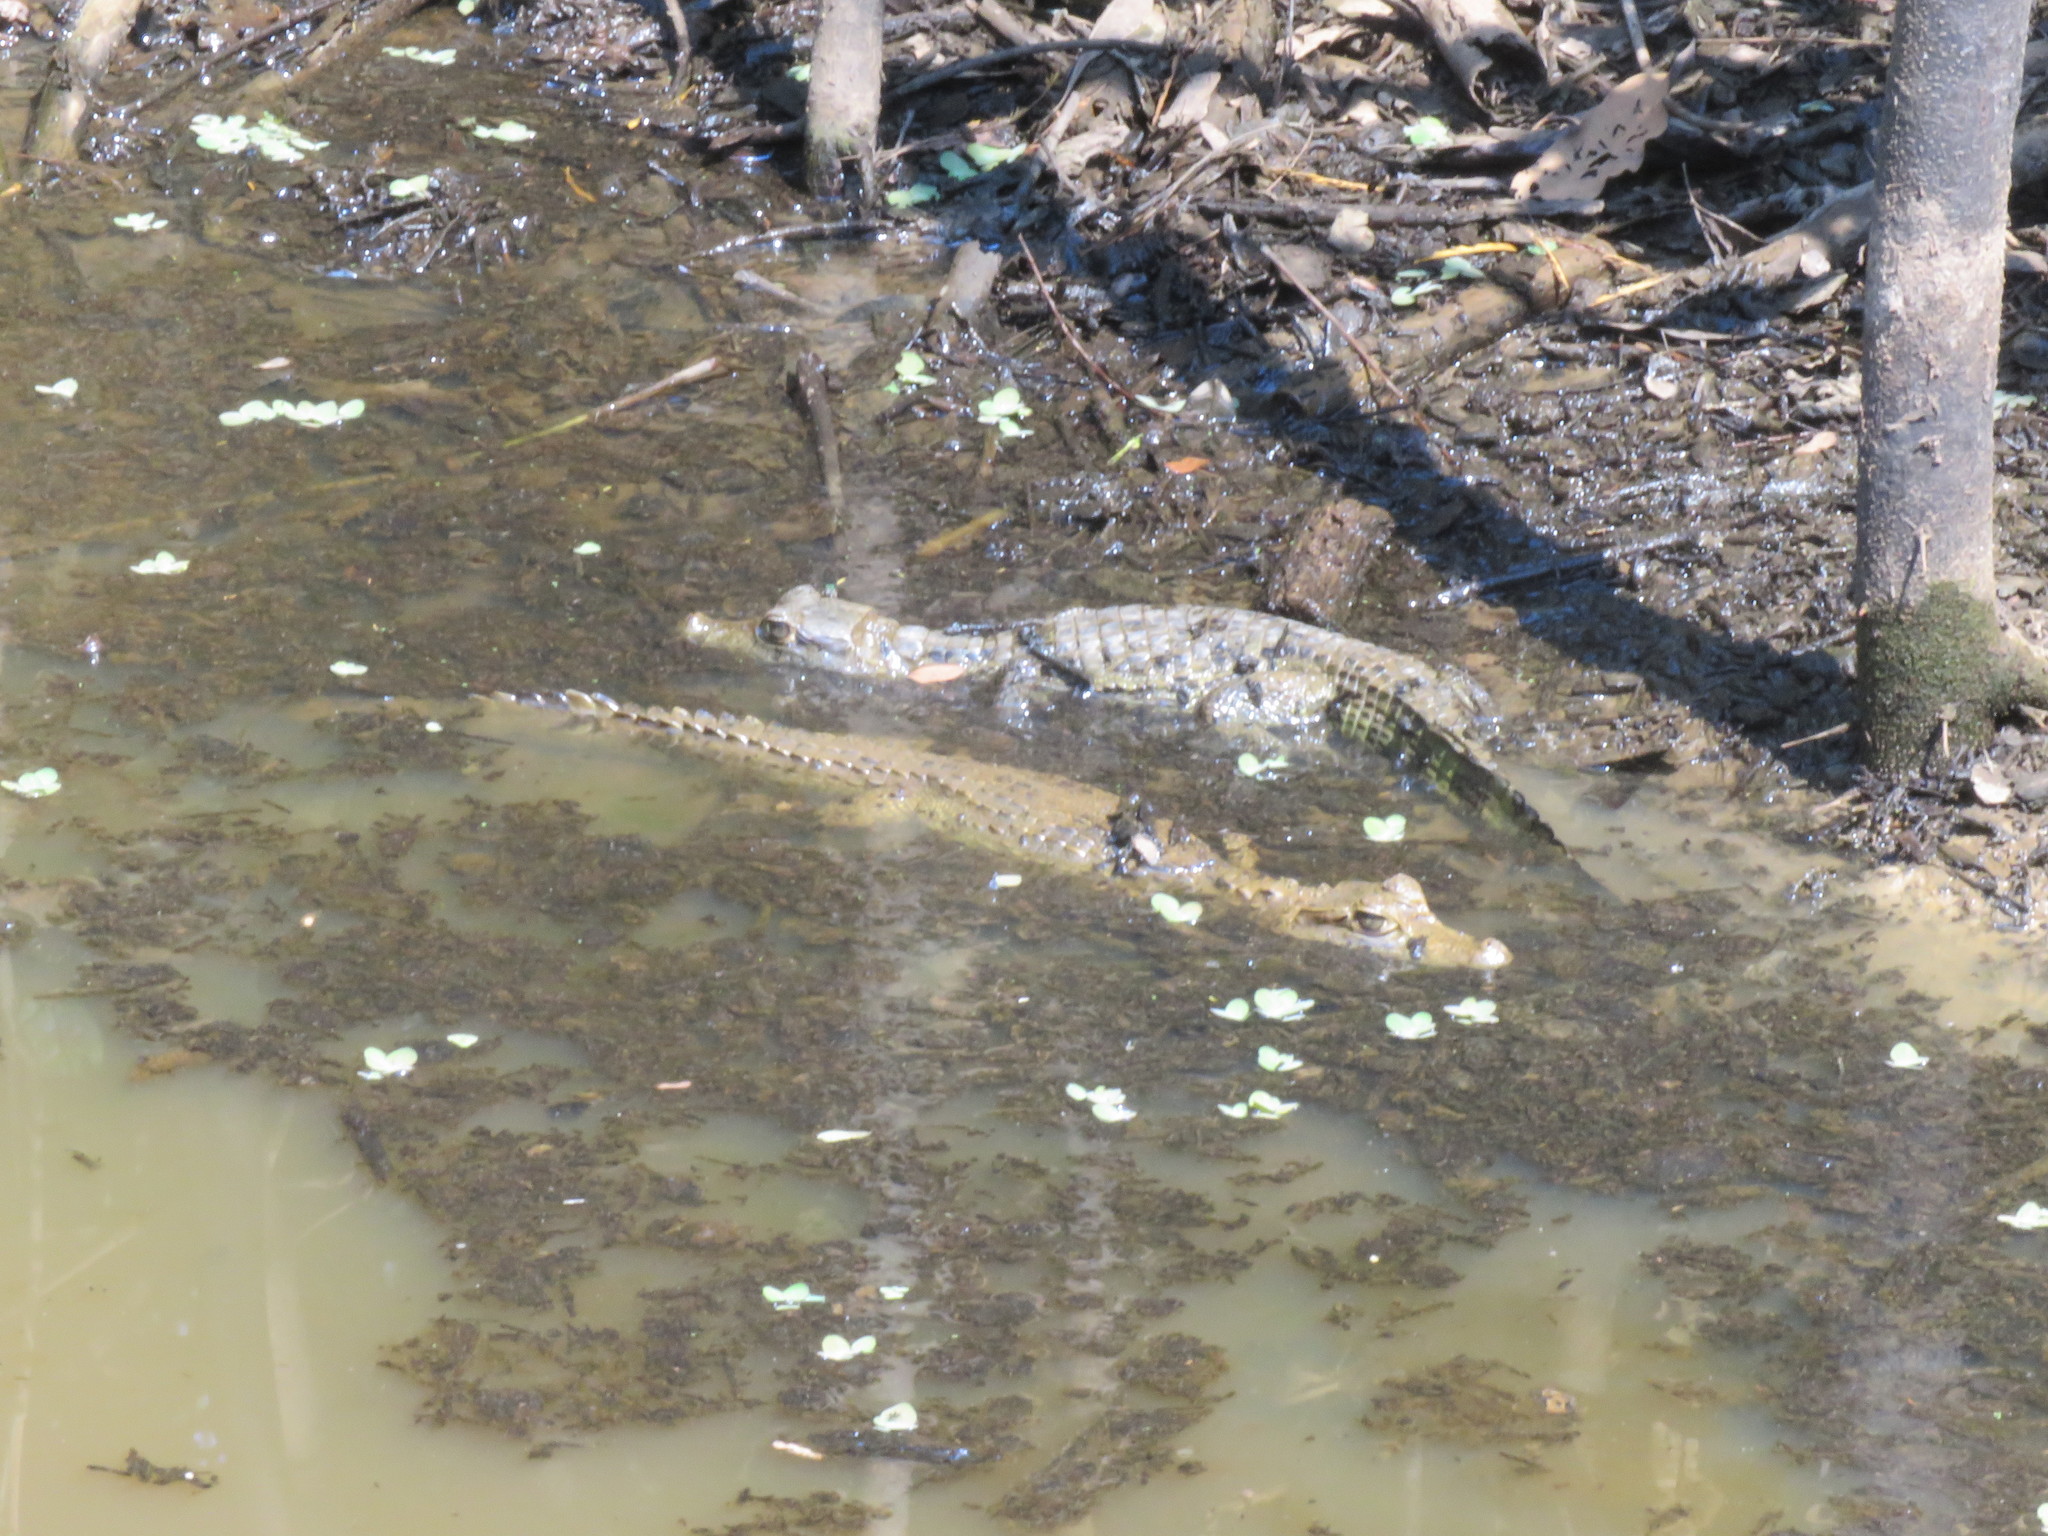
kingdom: Animalia
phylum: Chordata
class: Crocodylia
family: Alligatoridae
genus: Caiman
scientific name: Caiman yacare
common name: Yacare caiman
